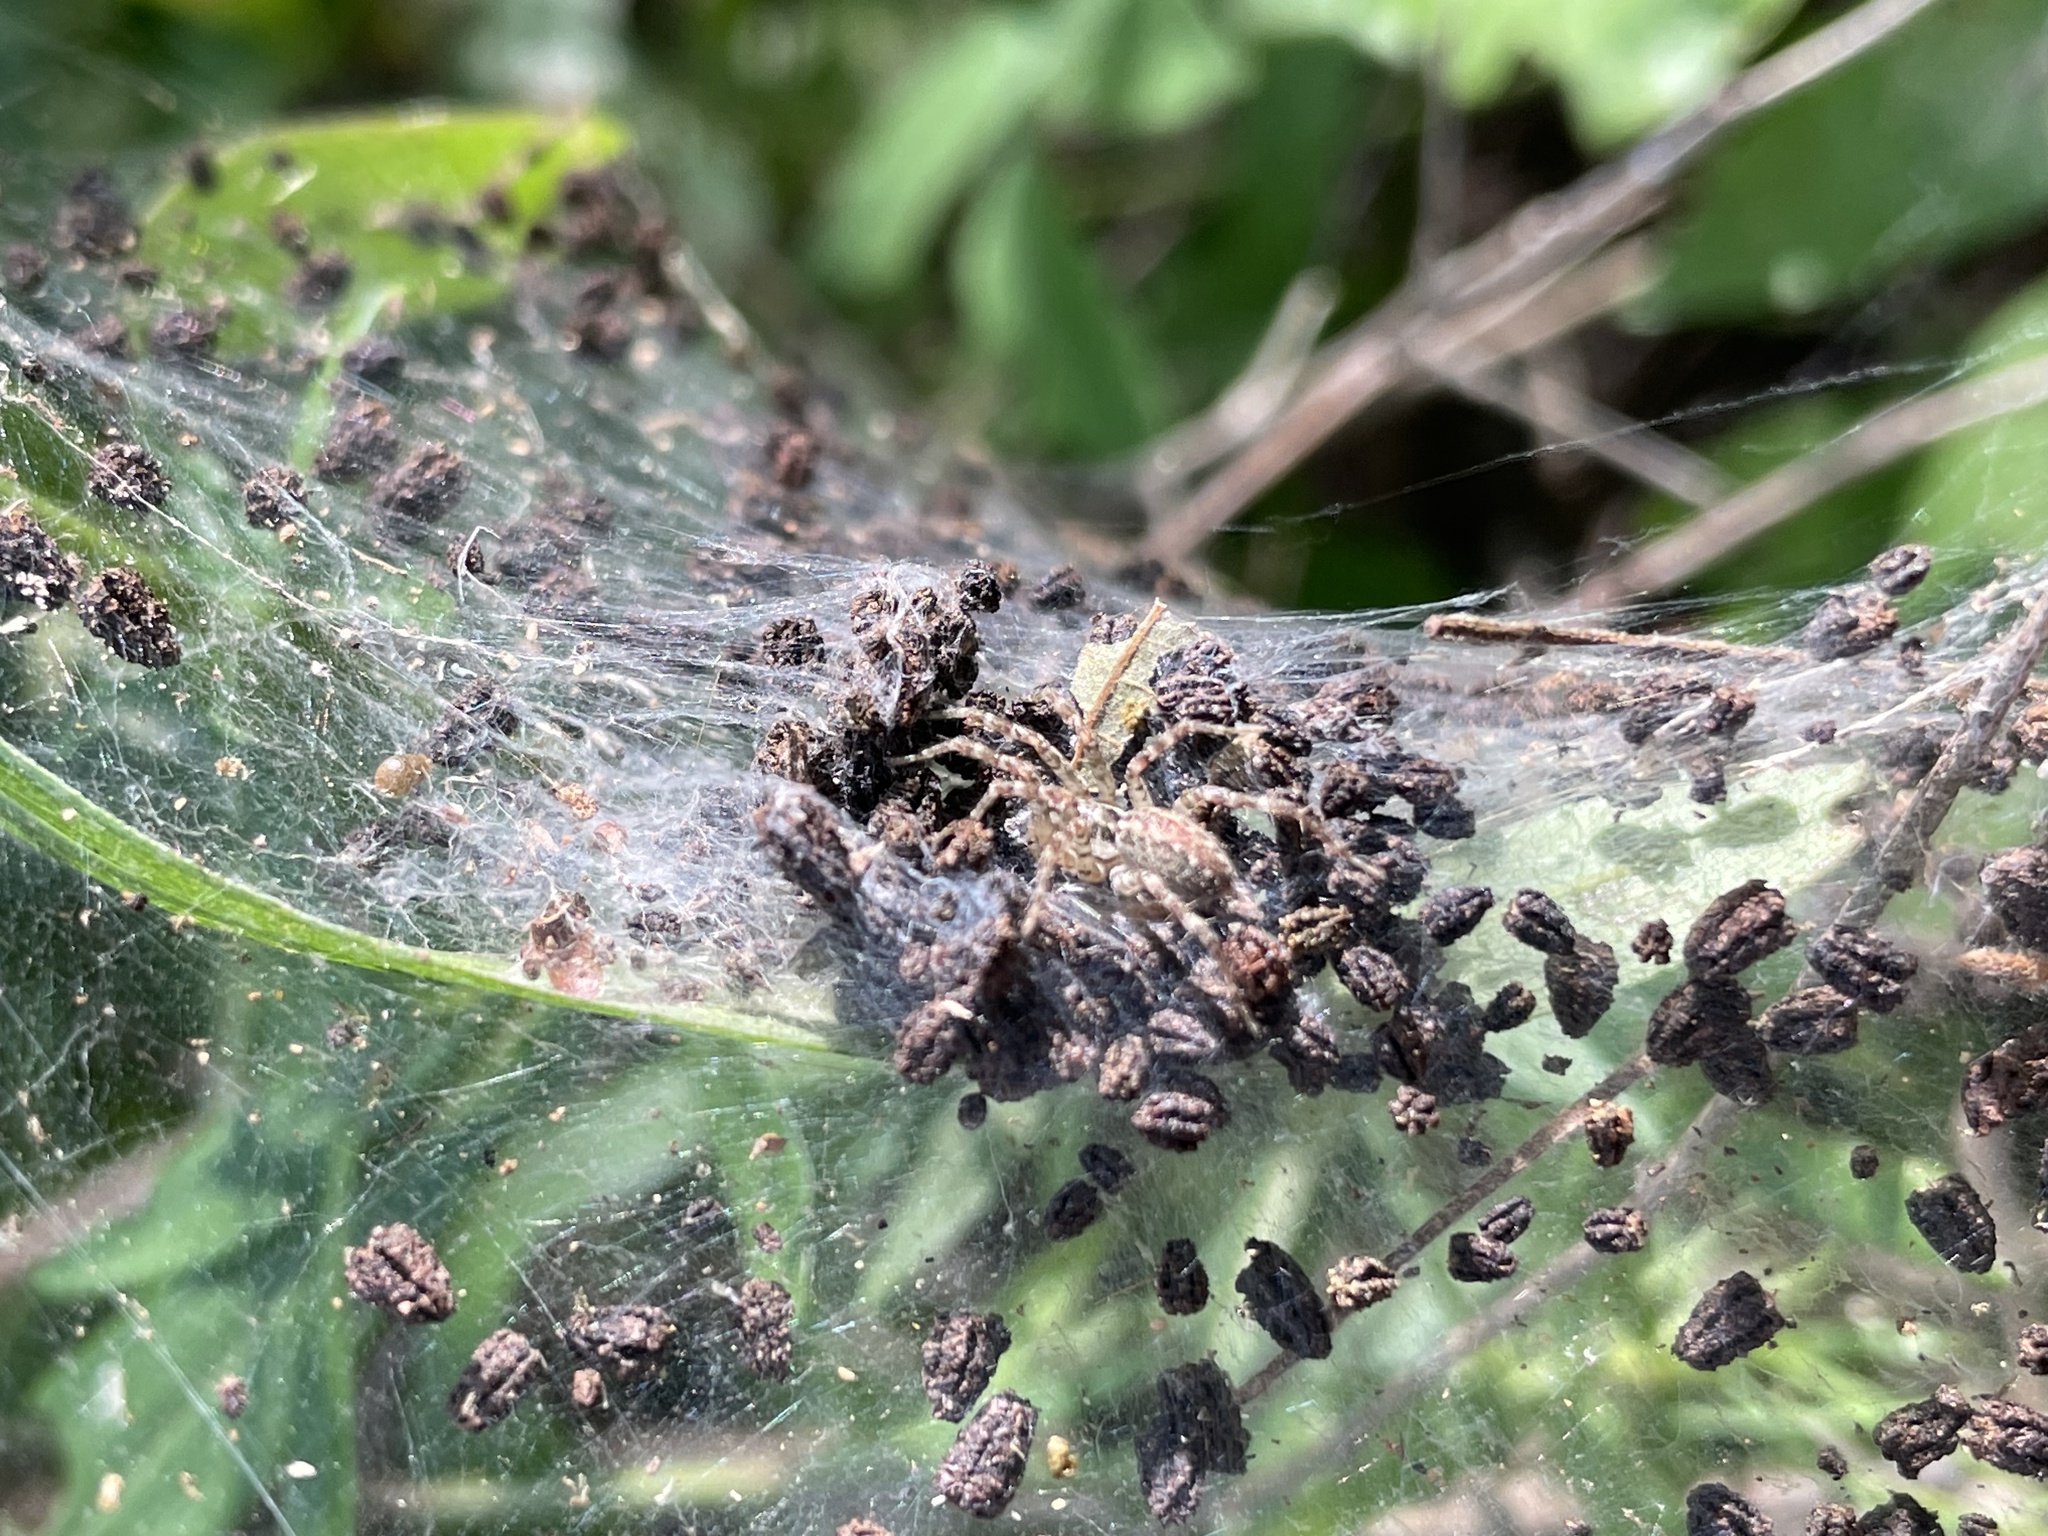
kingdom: Animalia
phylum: Arthropoda
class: Arachnida
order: Araneae
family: Agelenidae
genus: Barronopsis
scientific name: Barronopsis texana
